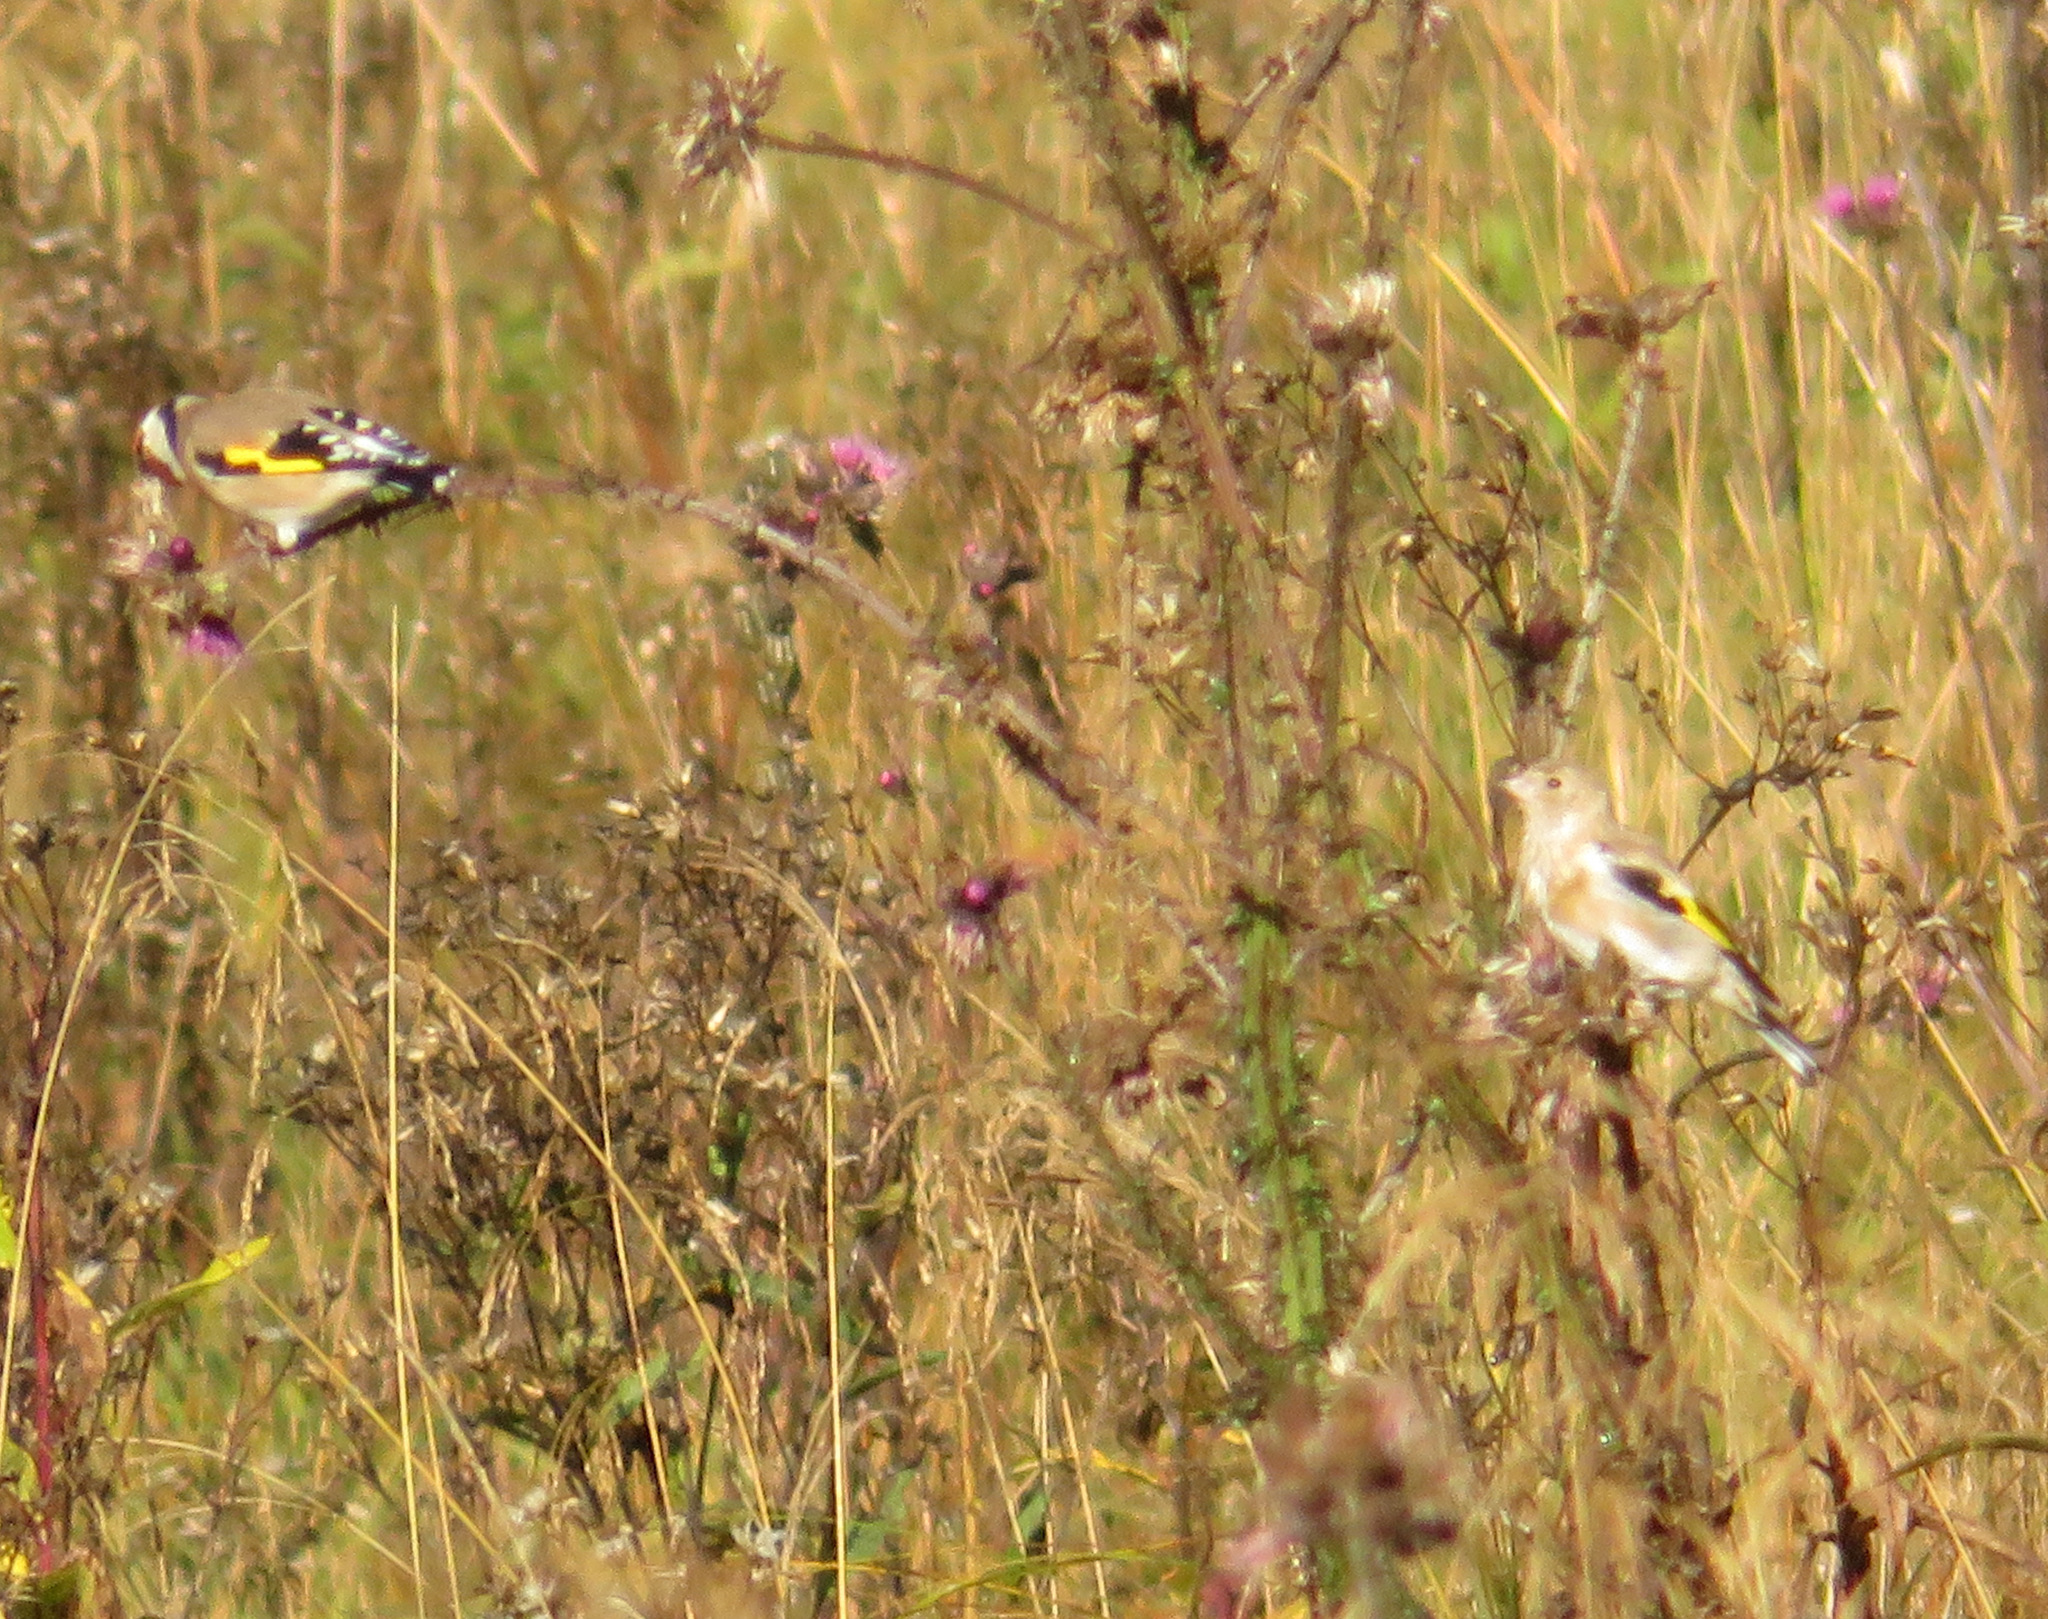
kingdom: Animalia
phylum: Chordata
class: Aves
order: Passeriformes
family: Fringillidae
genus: Carduelis
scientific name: Carduelis carduelis
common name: European goldfinch
